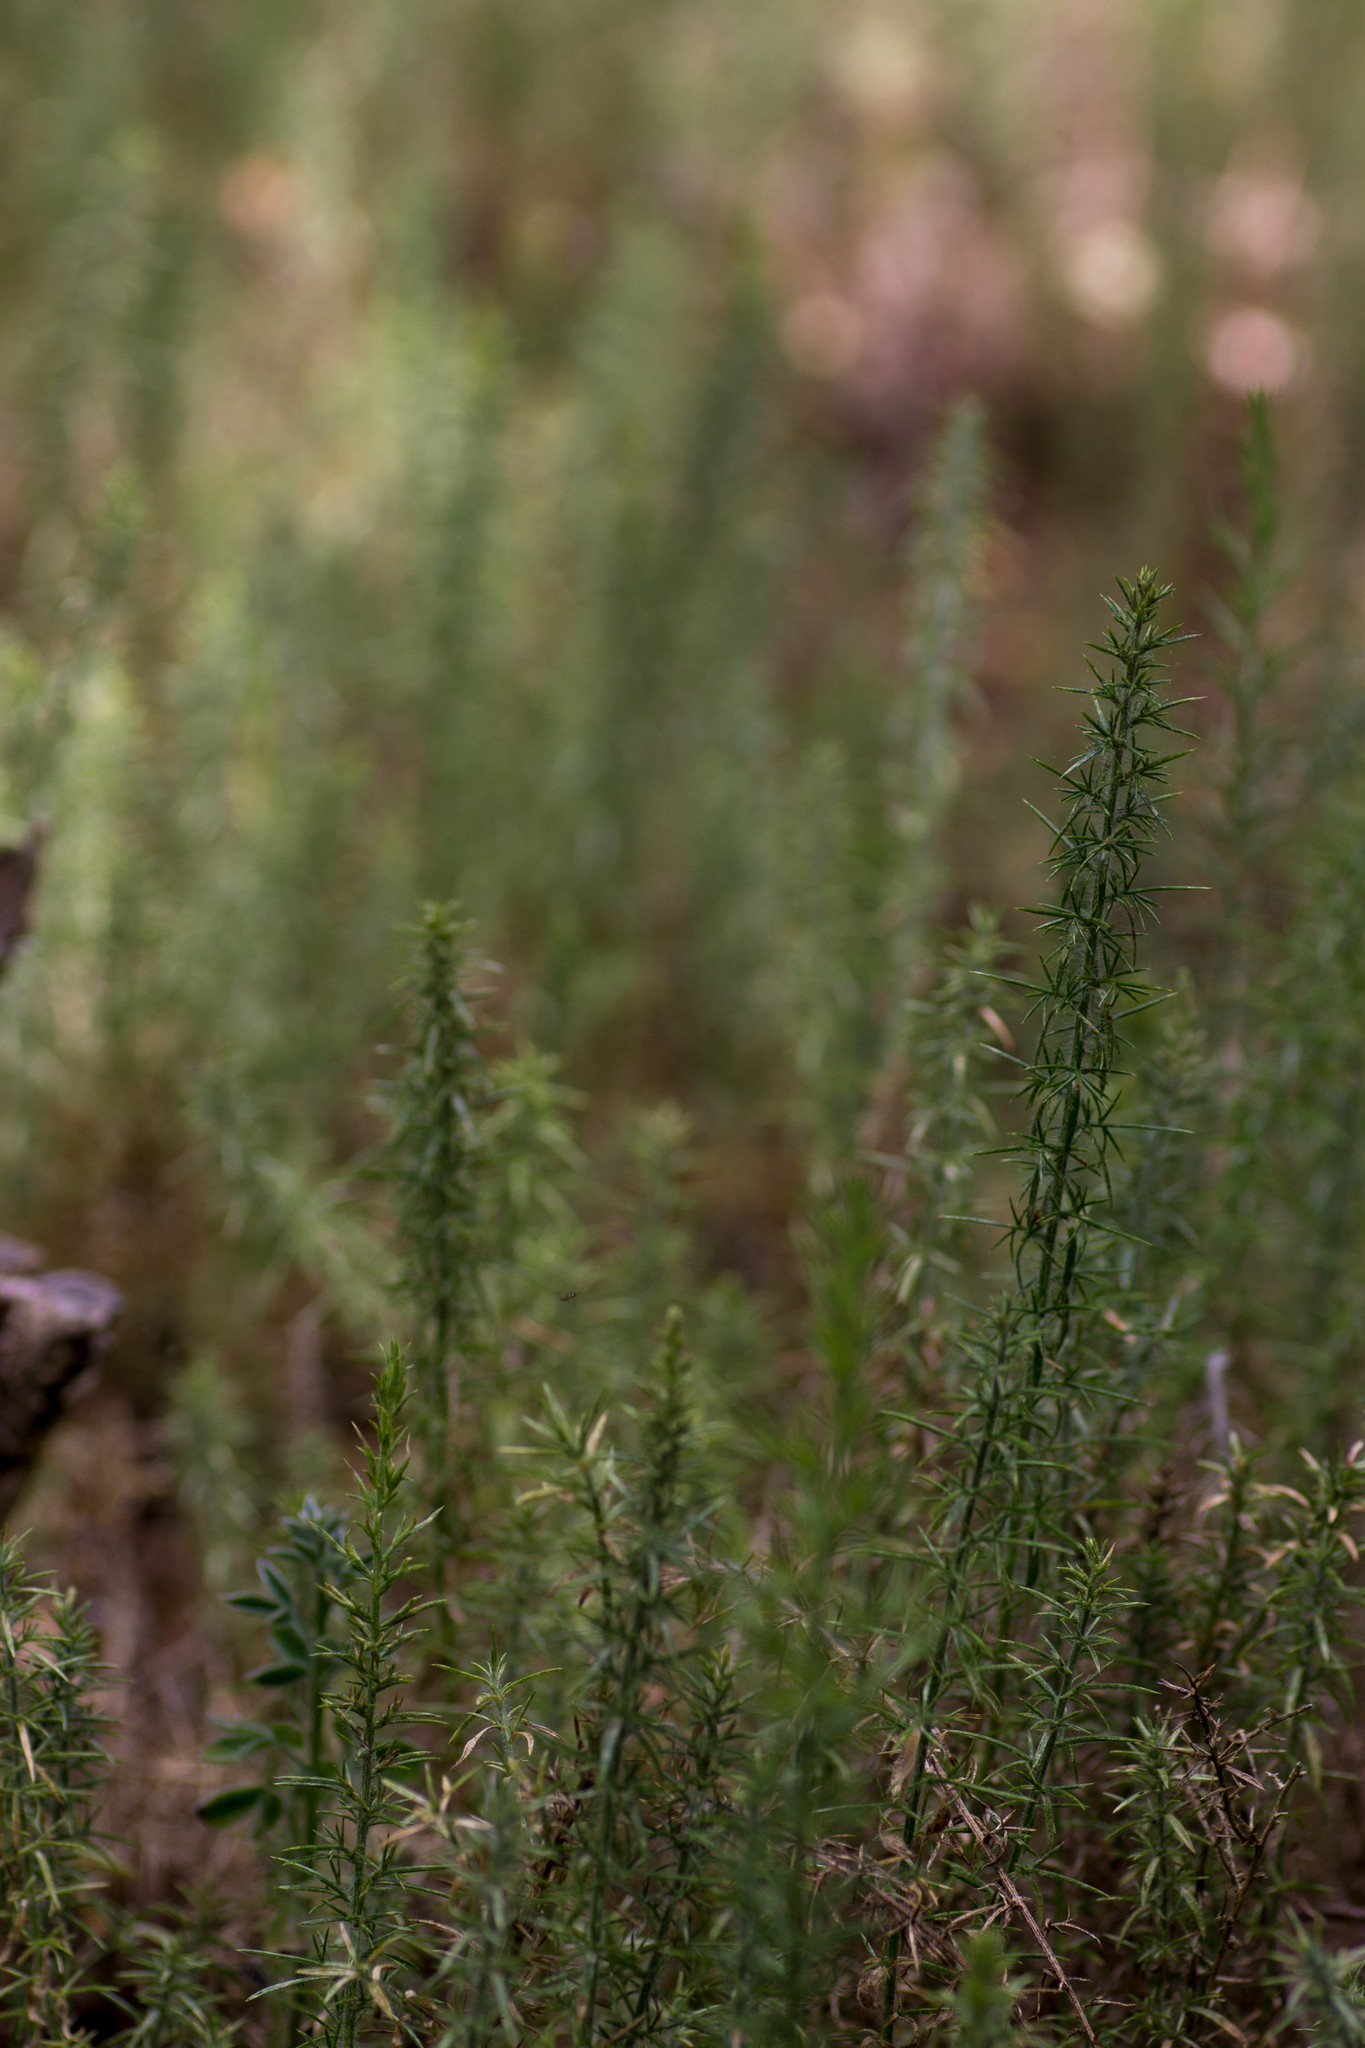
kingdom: Plantae
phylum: Tracheophyta
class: Magnoliopsida
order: Fabales
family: Fabaceae
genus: Ulex
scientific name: Ulex europaeus
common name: Common gorse
